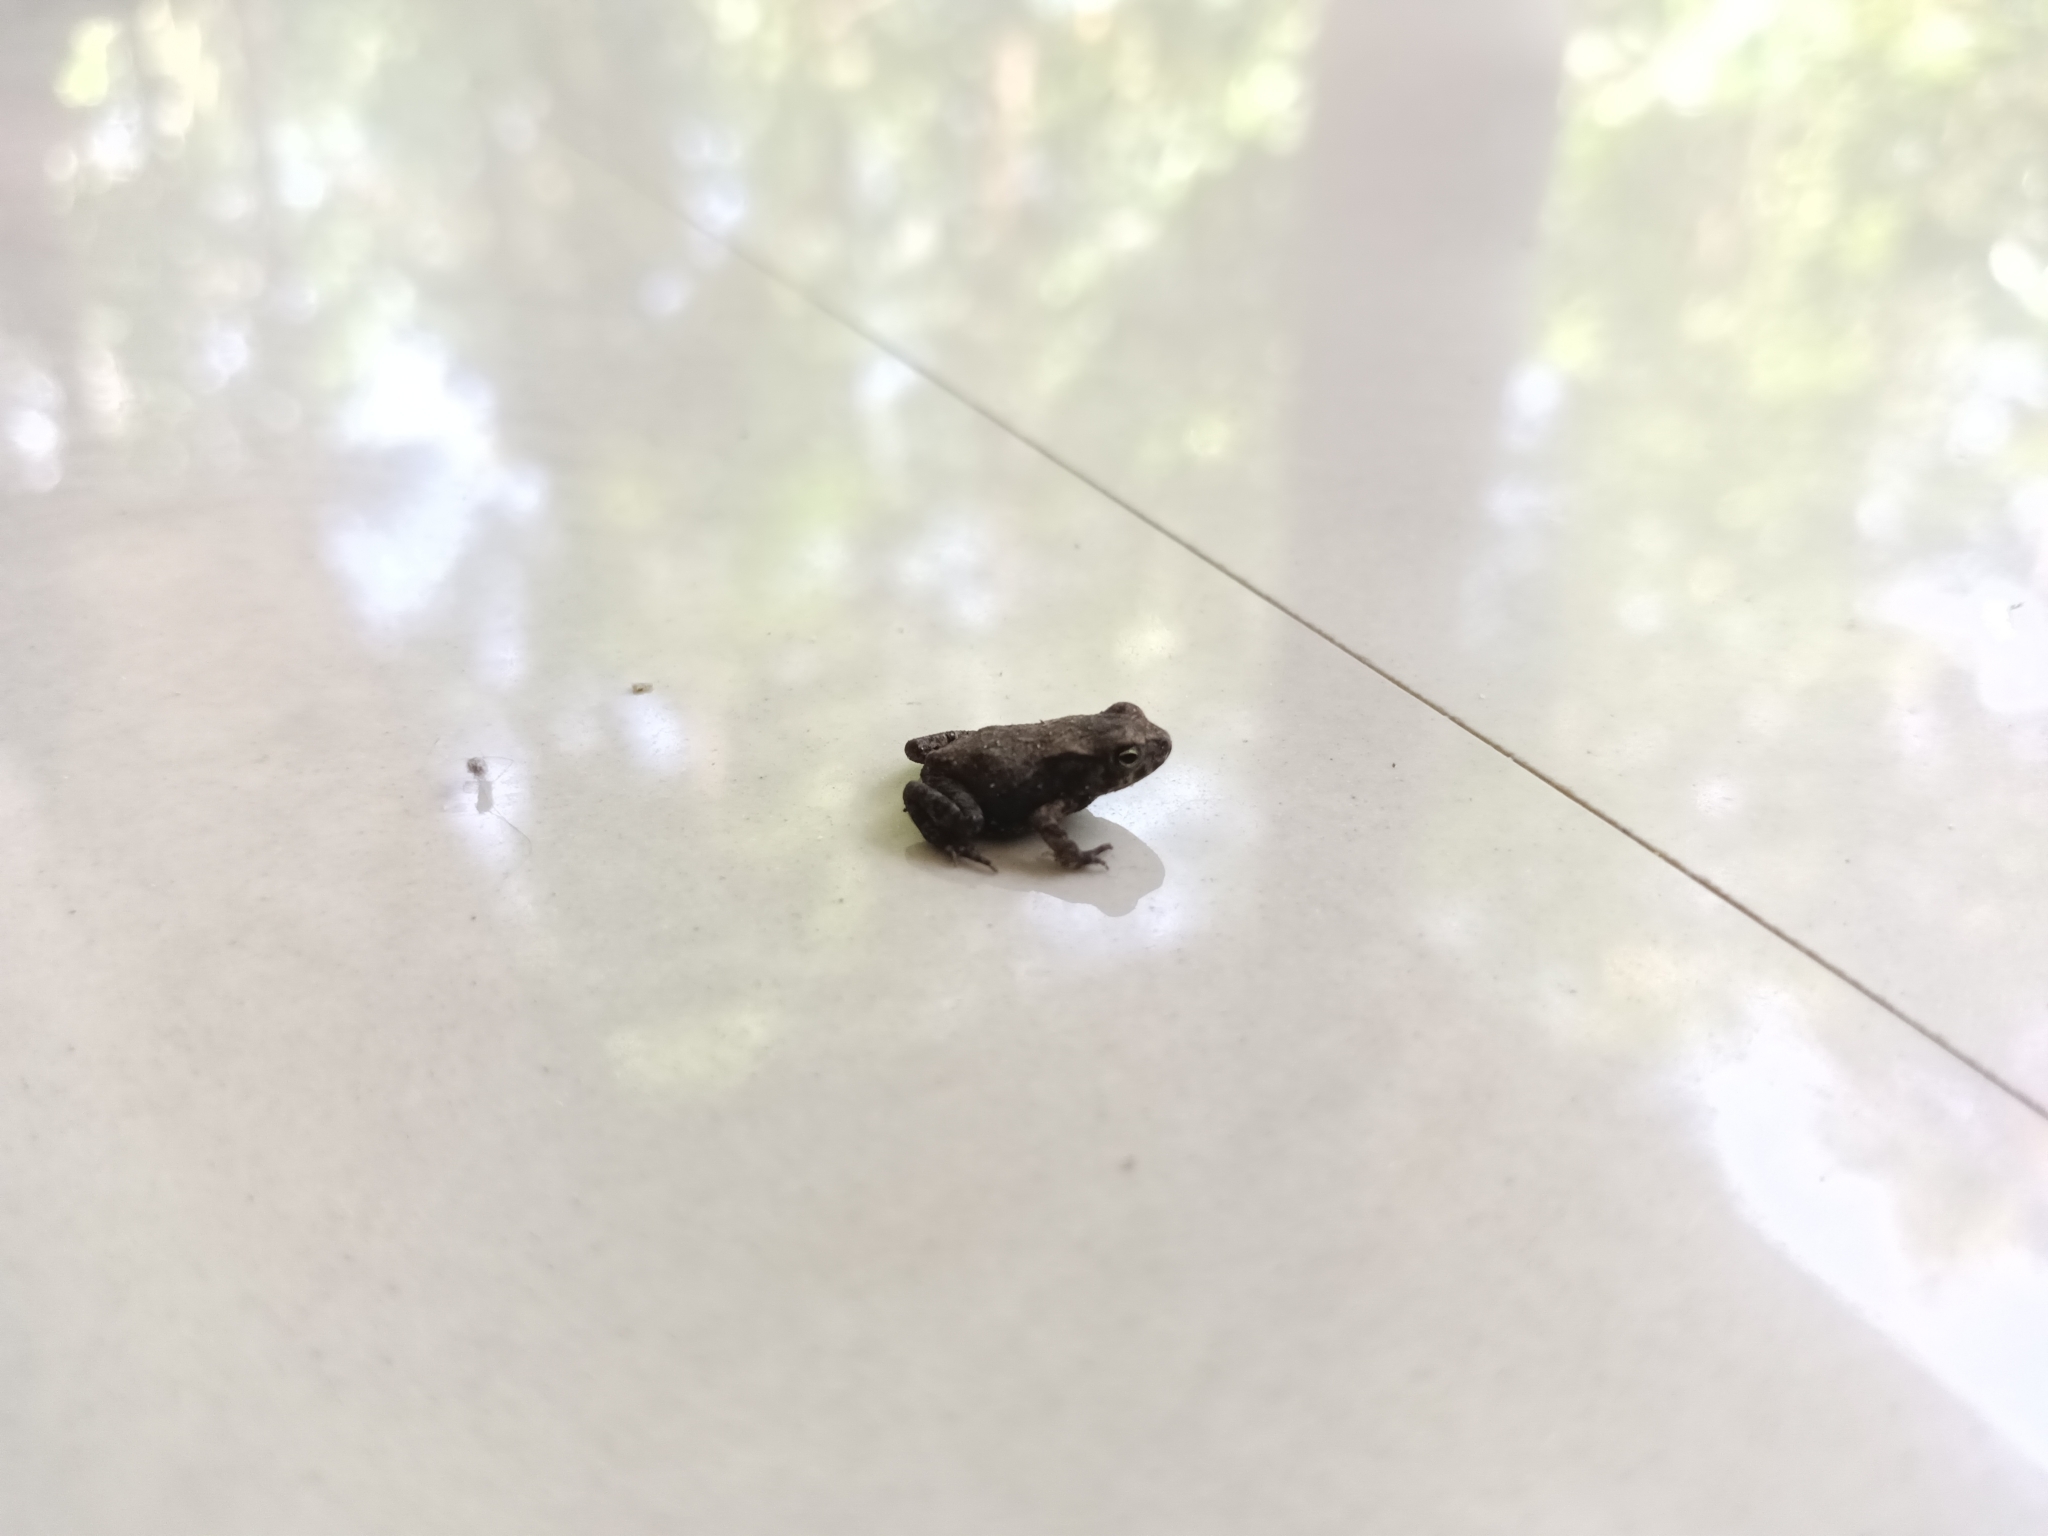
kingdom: Animalia
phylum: Chordata
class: Amphibia
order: Anura
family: Bufonidae
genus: Duttaphrynus
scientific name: Duttaphrynus melanostictus
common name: Common sunda toad
